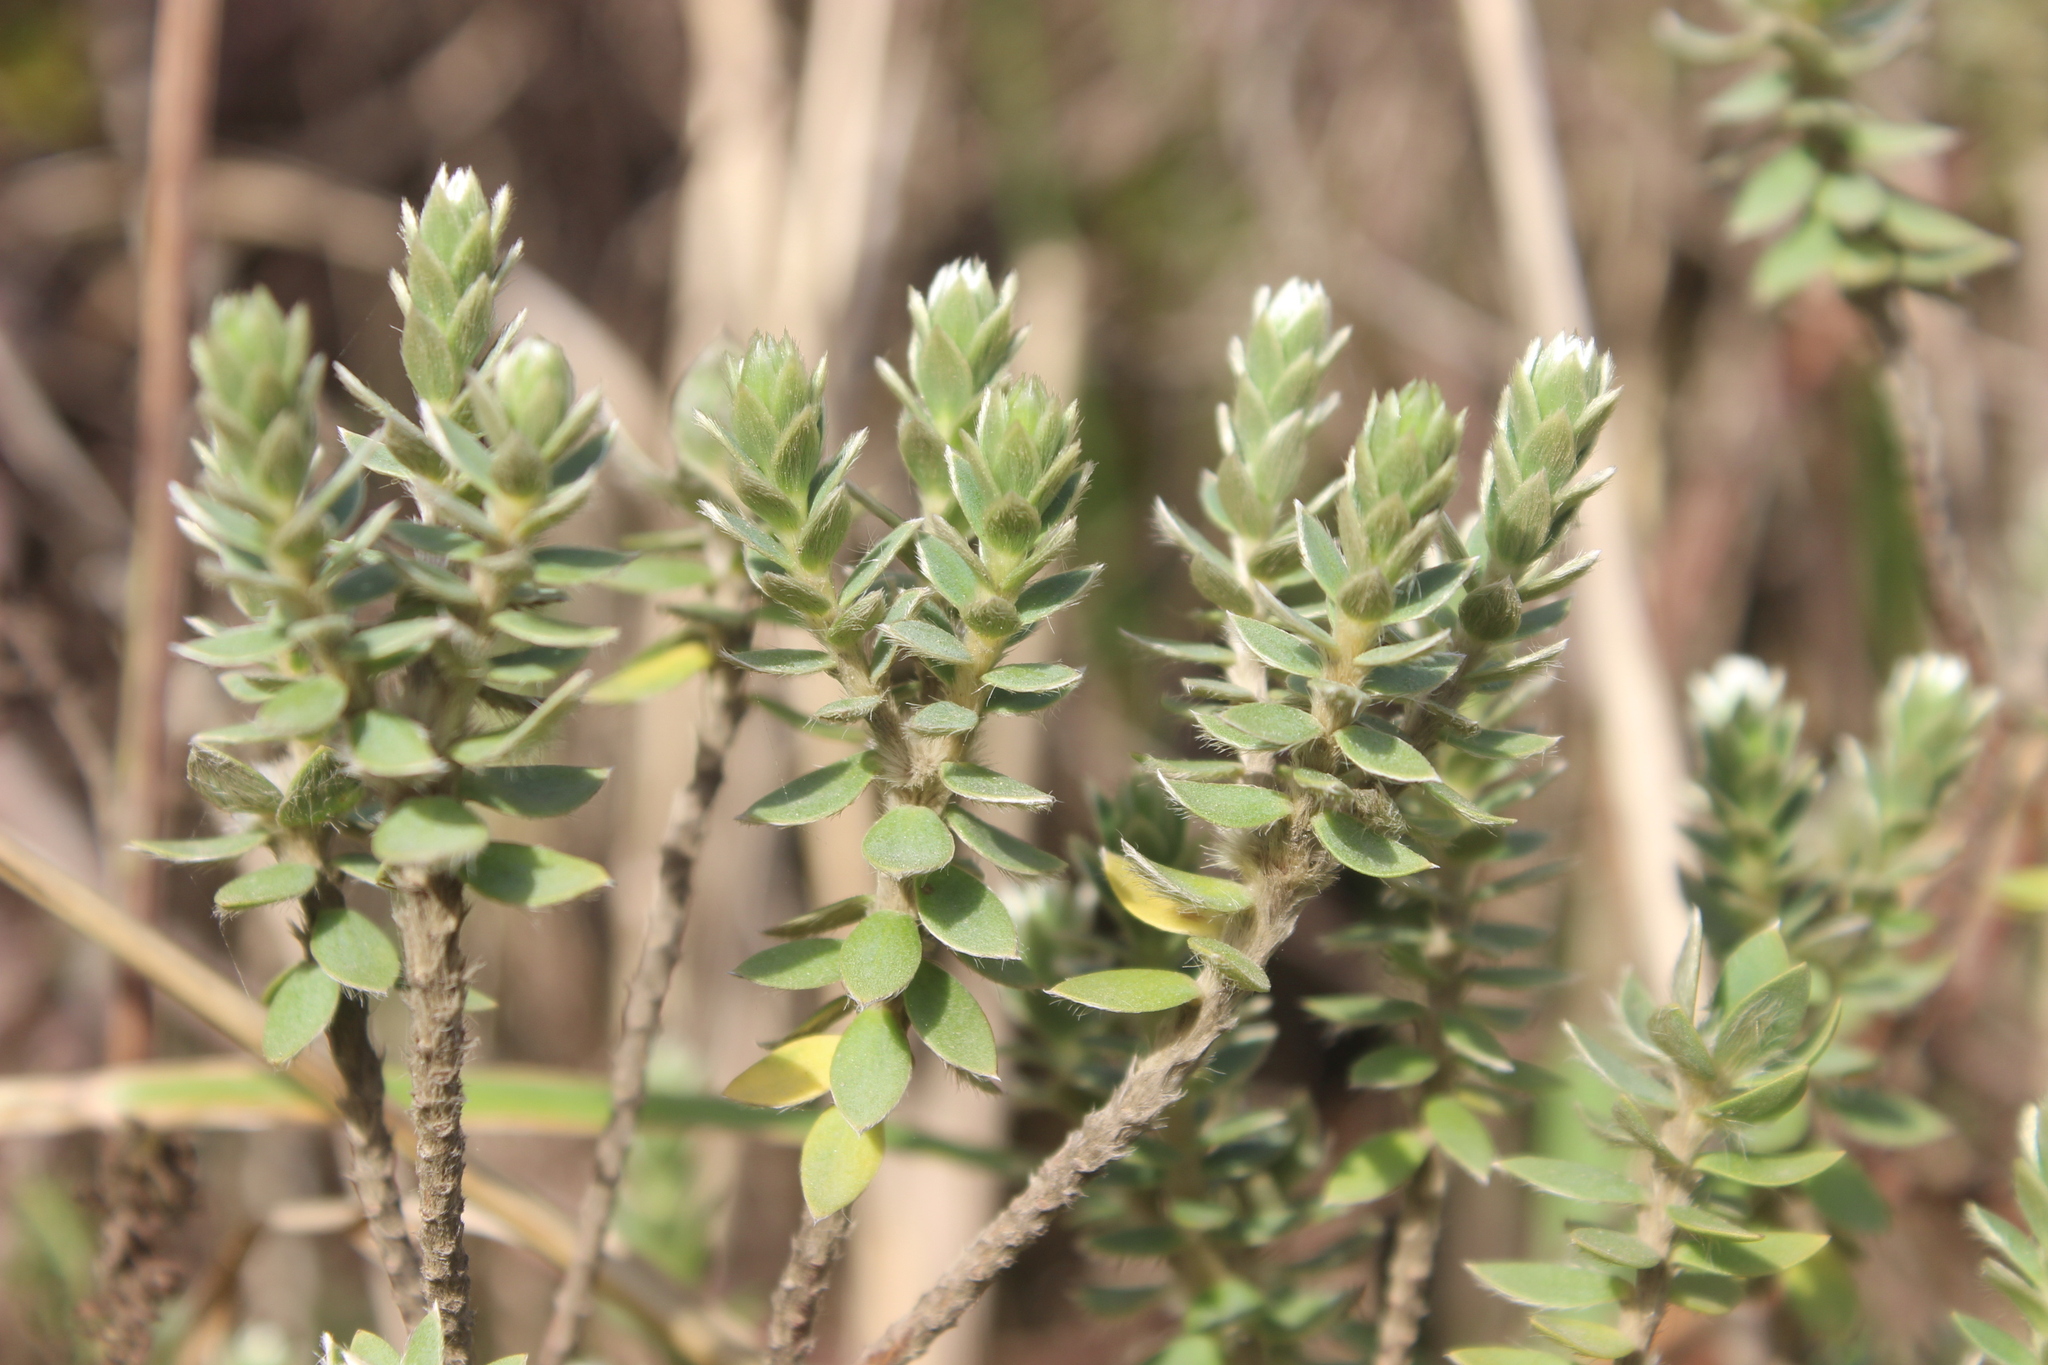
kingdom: Plantae
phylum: Tracheophyta
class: Magnoliopsida
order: Malvales
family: Thymelaeaceae
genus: Pimelea
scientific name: Pimelea villosa
